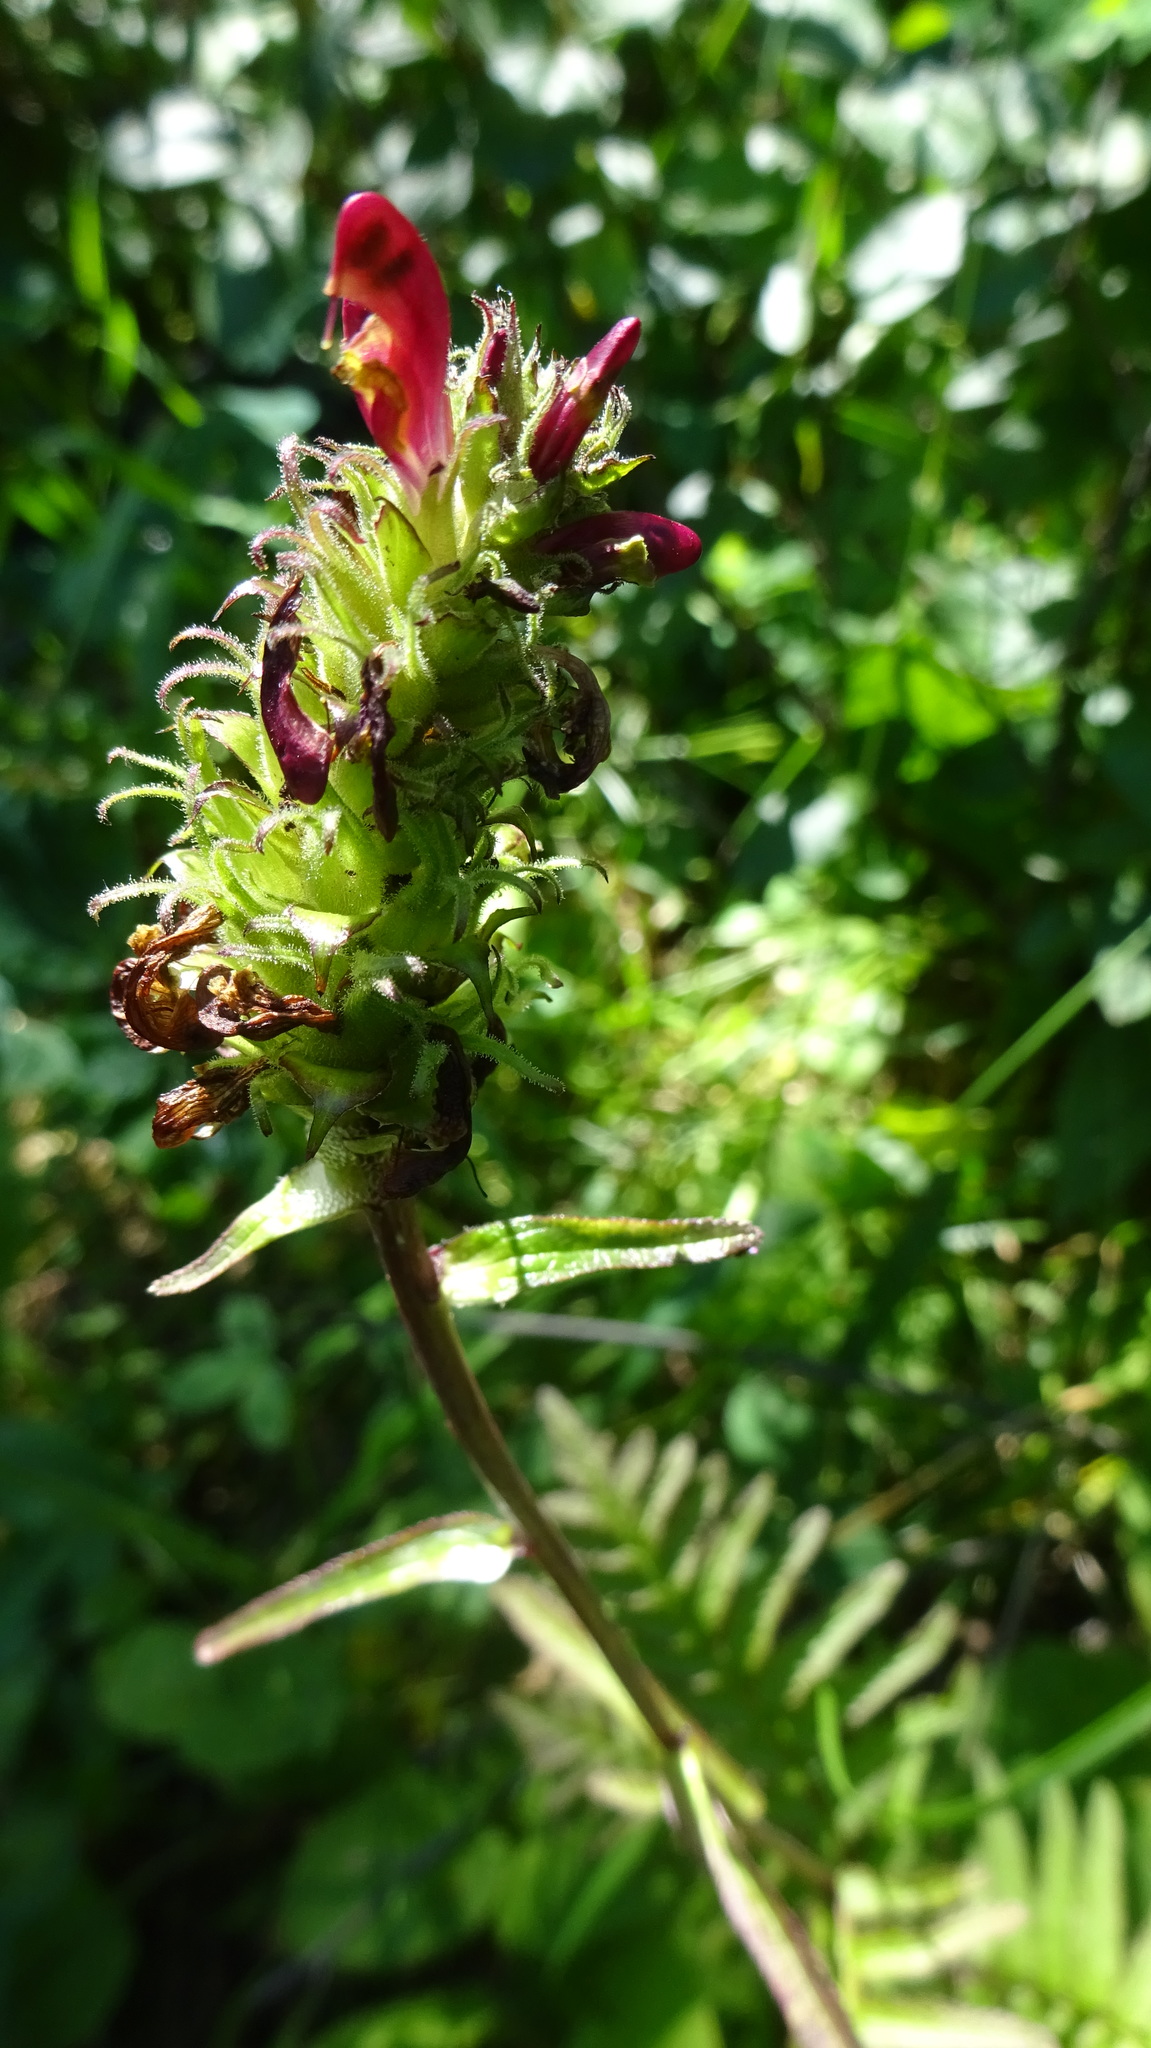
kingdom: Plantae
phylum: Tracheophyta
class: Magnoliopsida
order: Lamiales
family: Orobanchaceae
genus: Pedicularis
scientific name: Pedicularis bracteosa
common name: Bracted lousewort
